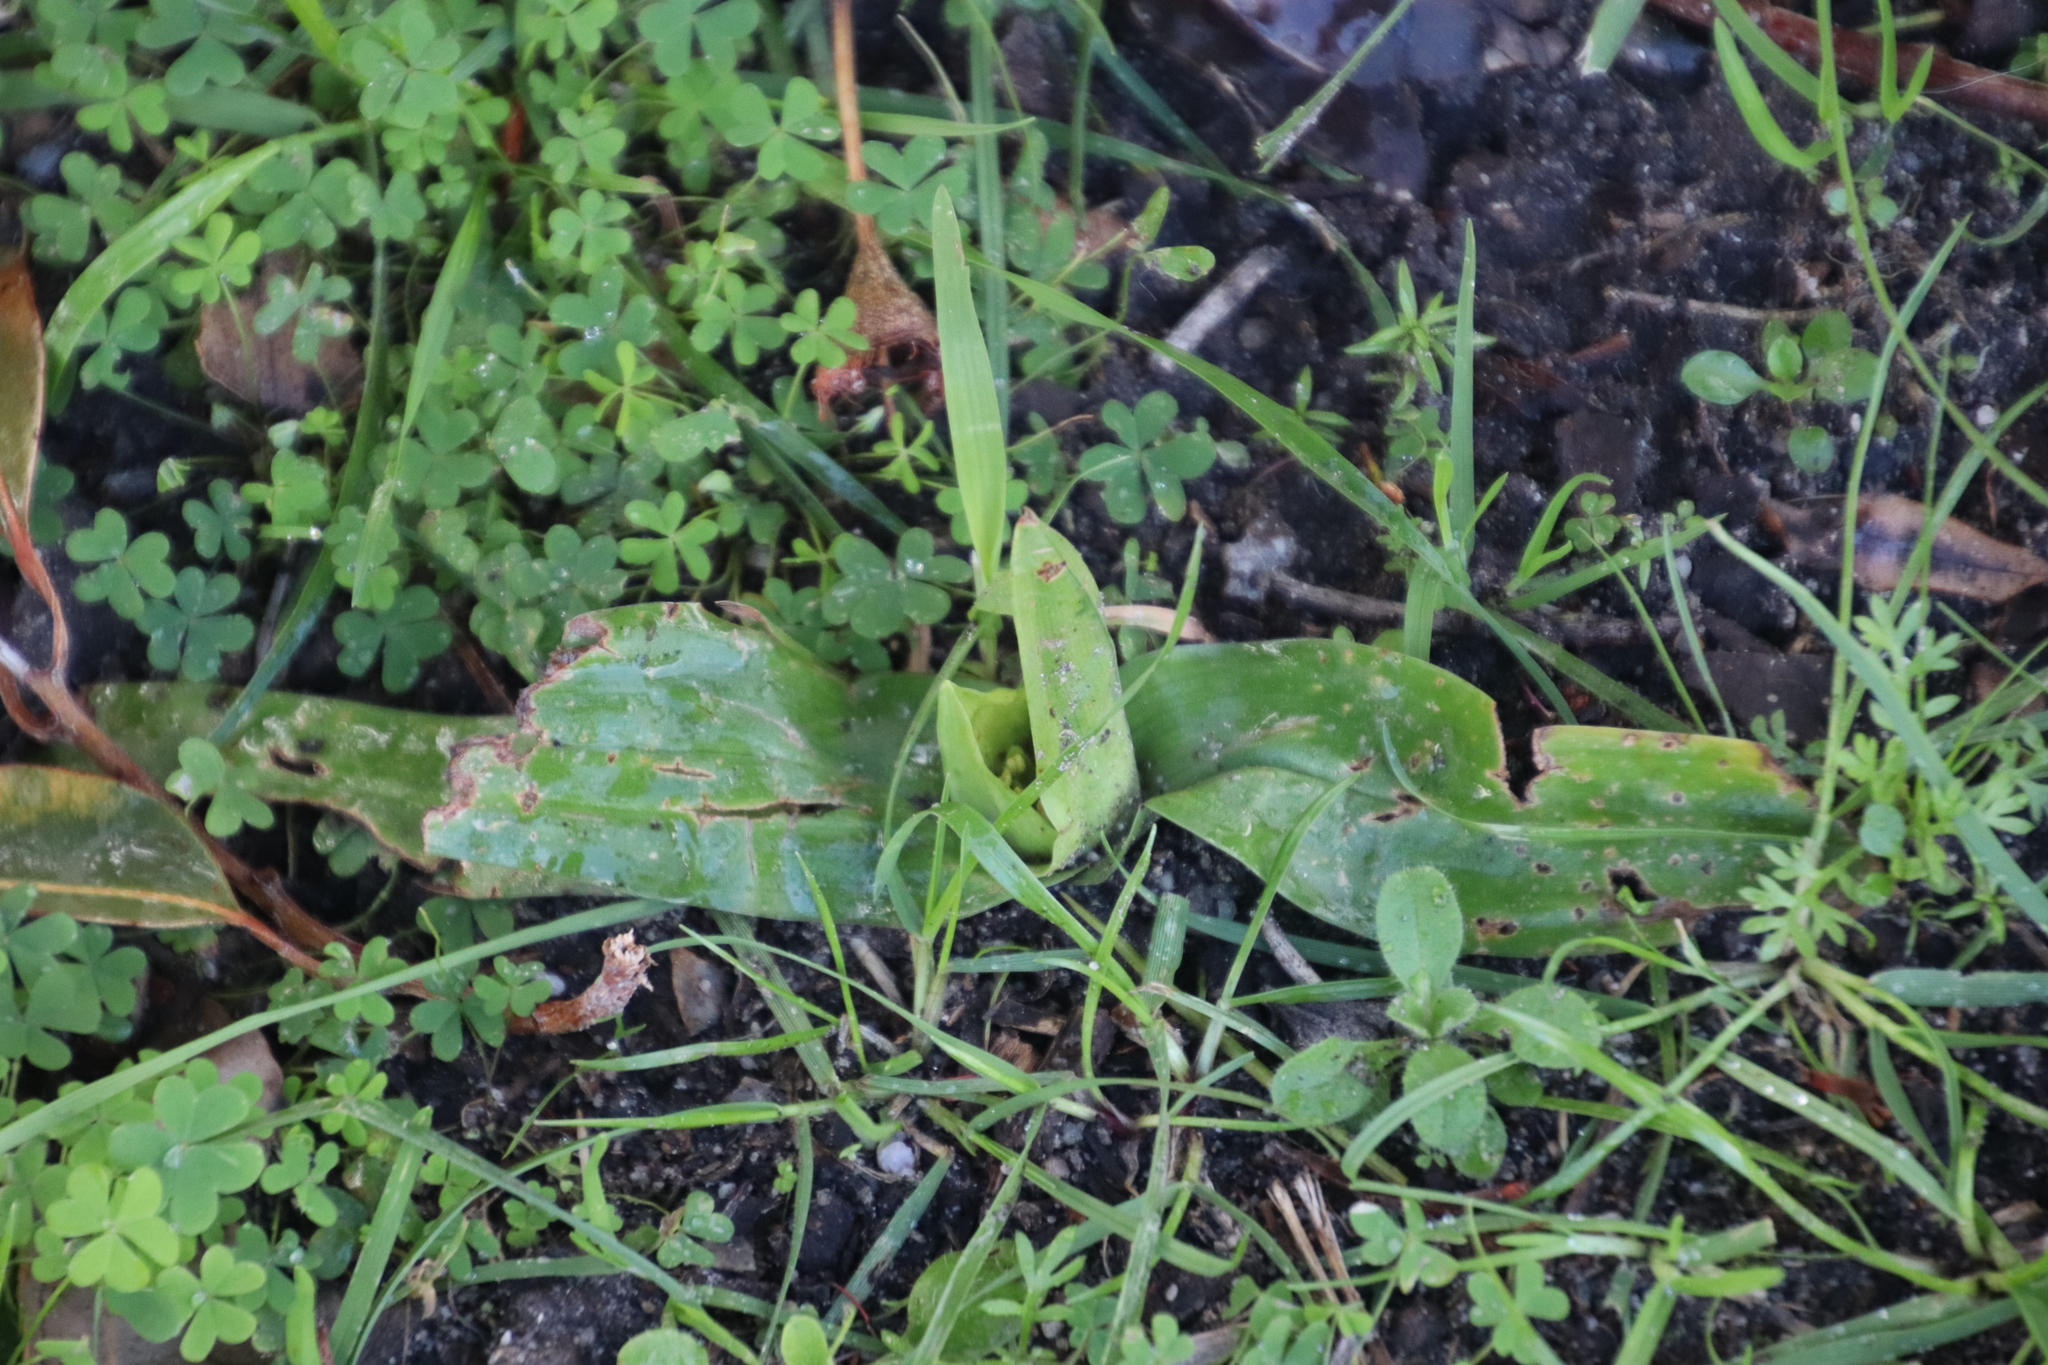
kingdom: Plantae
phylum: Tracheophyta
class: Liliopsida
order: Liliales
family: Colchicaceae
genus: Colchicum
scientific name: Colchicum eucomoides
